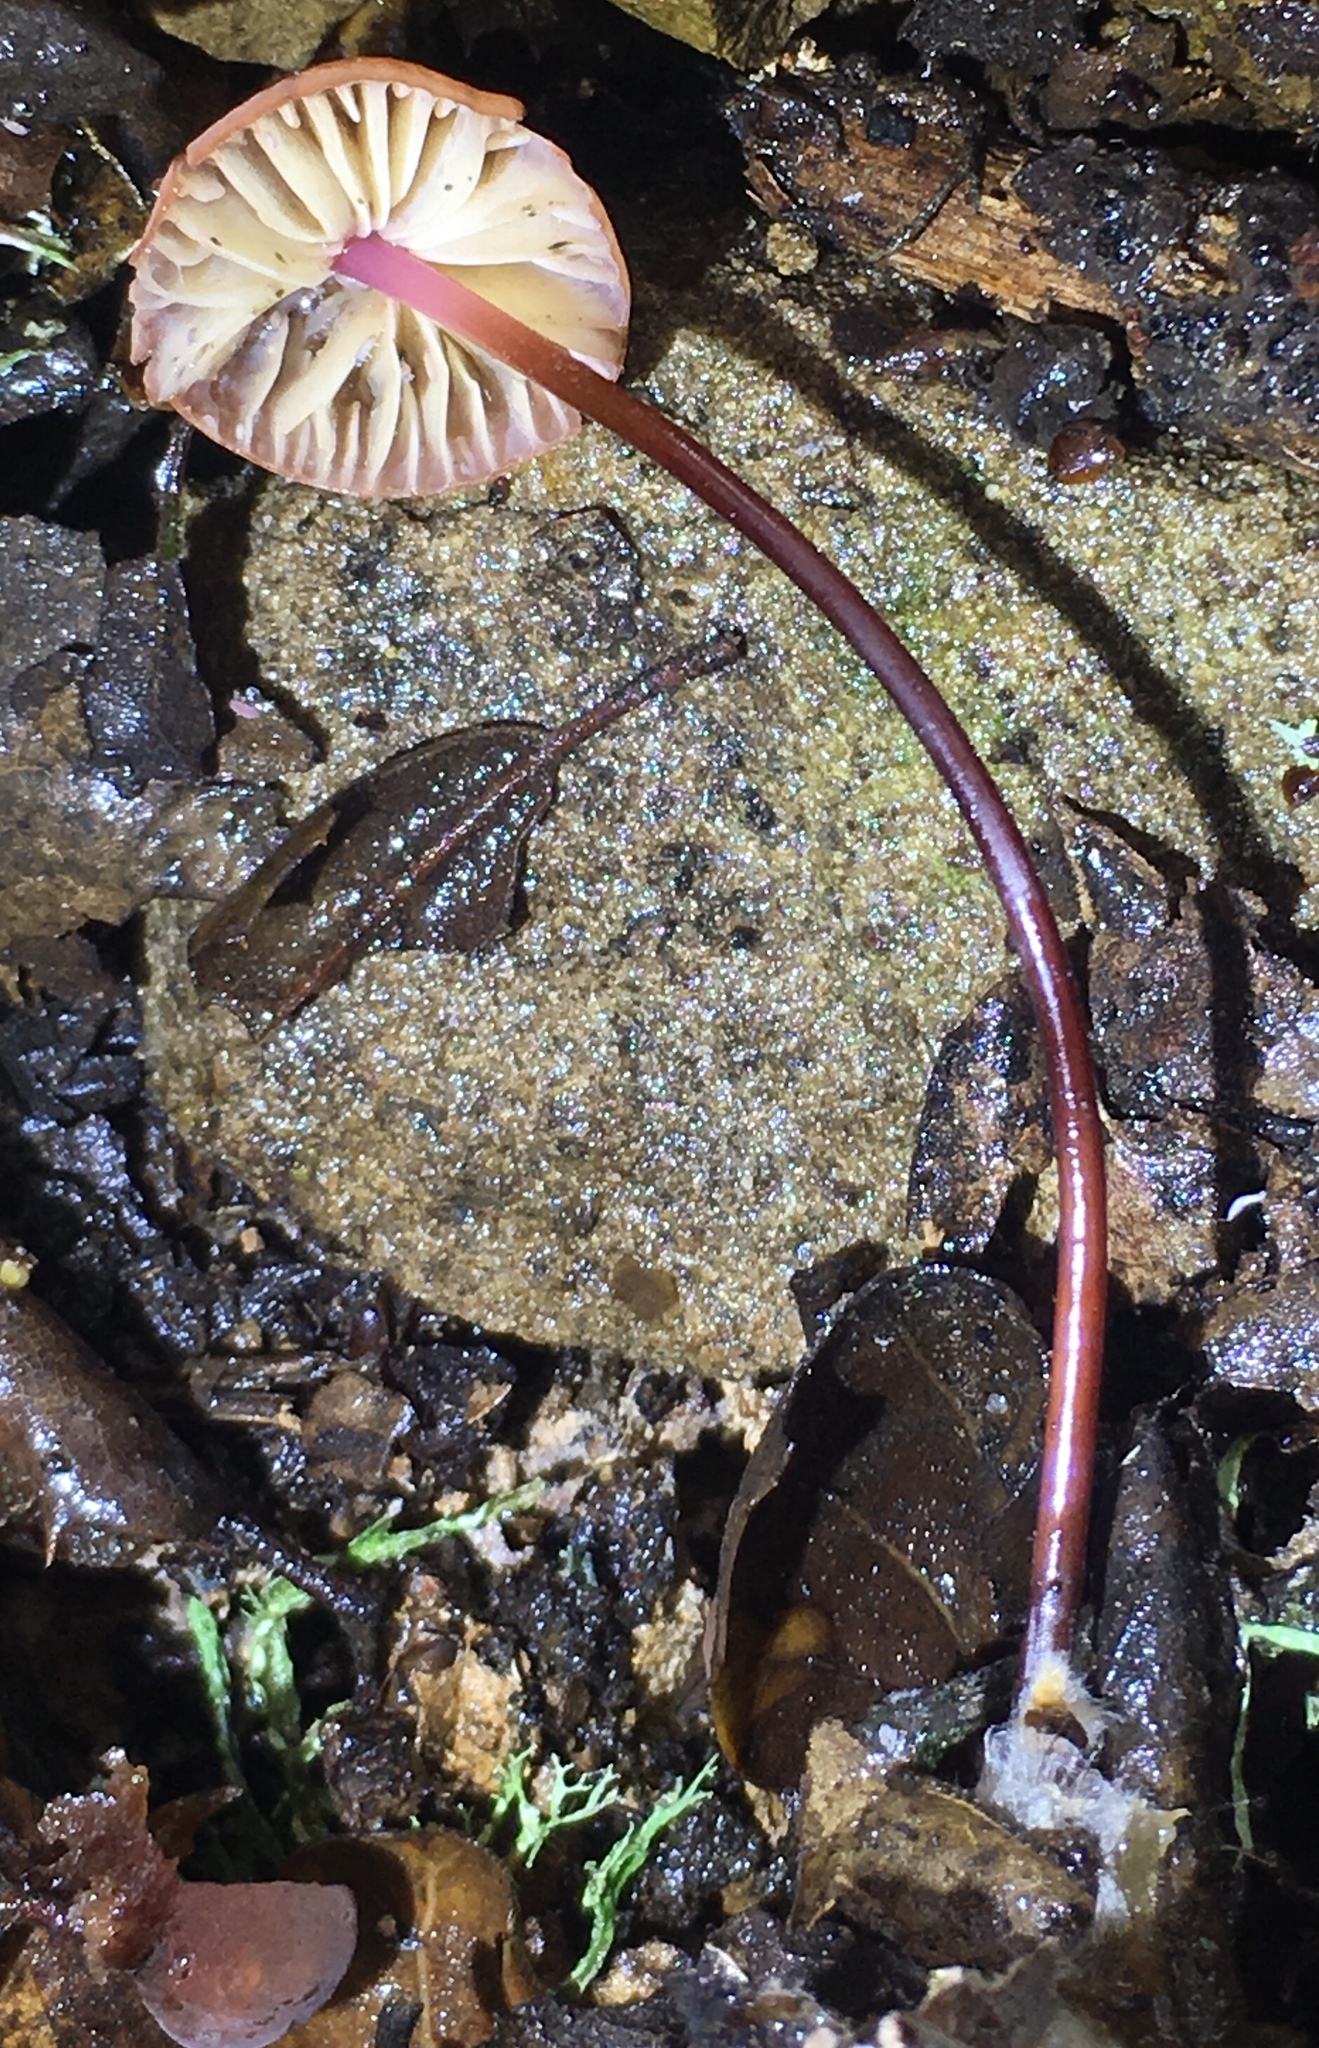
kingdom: Fungi
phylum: Basidiomycota
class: Agaricomycetes
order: Agaricales
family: Marasmiaceae
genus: Marasmius
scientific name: Marasmius plicatulus
